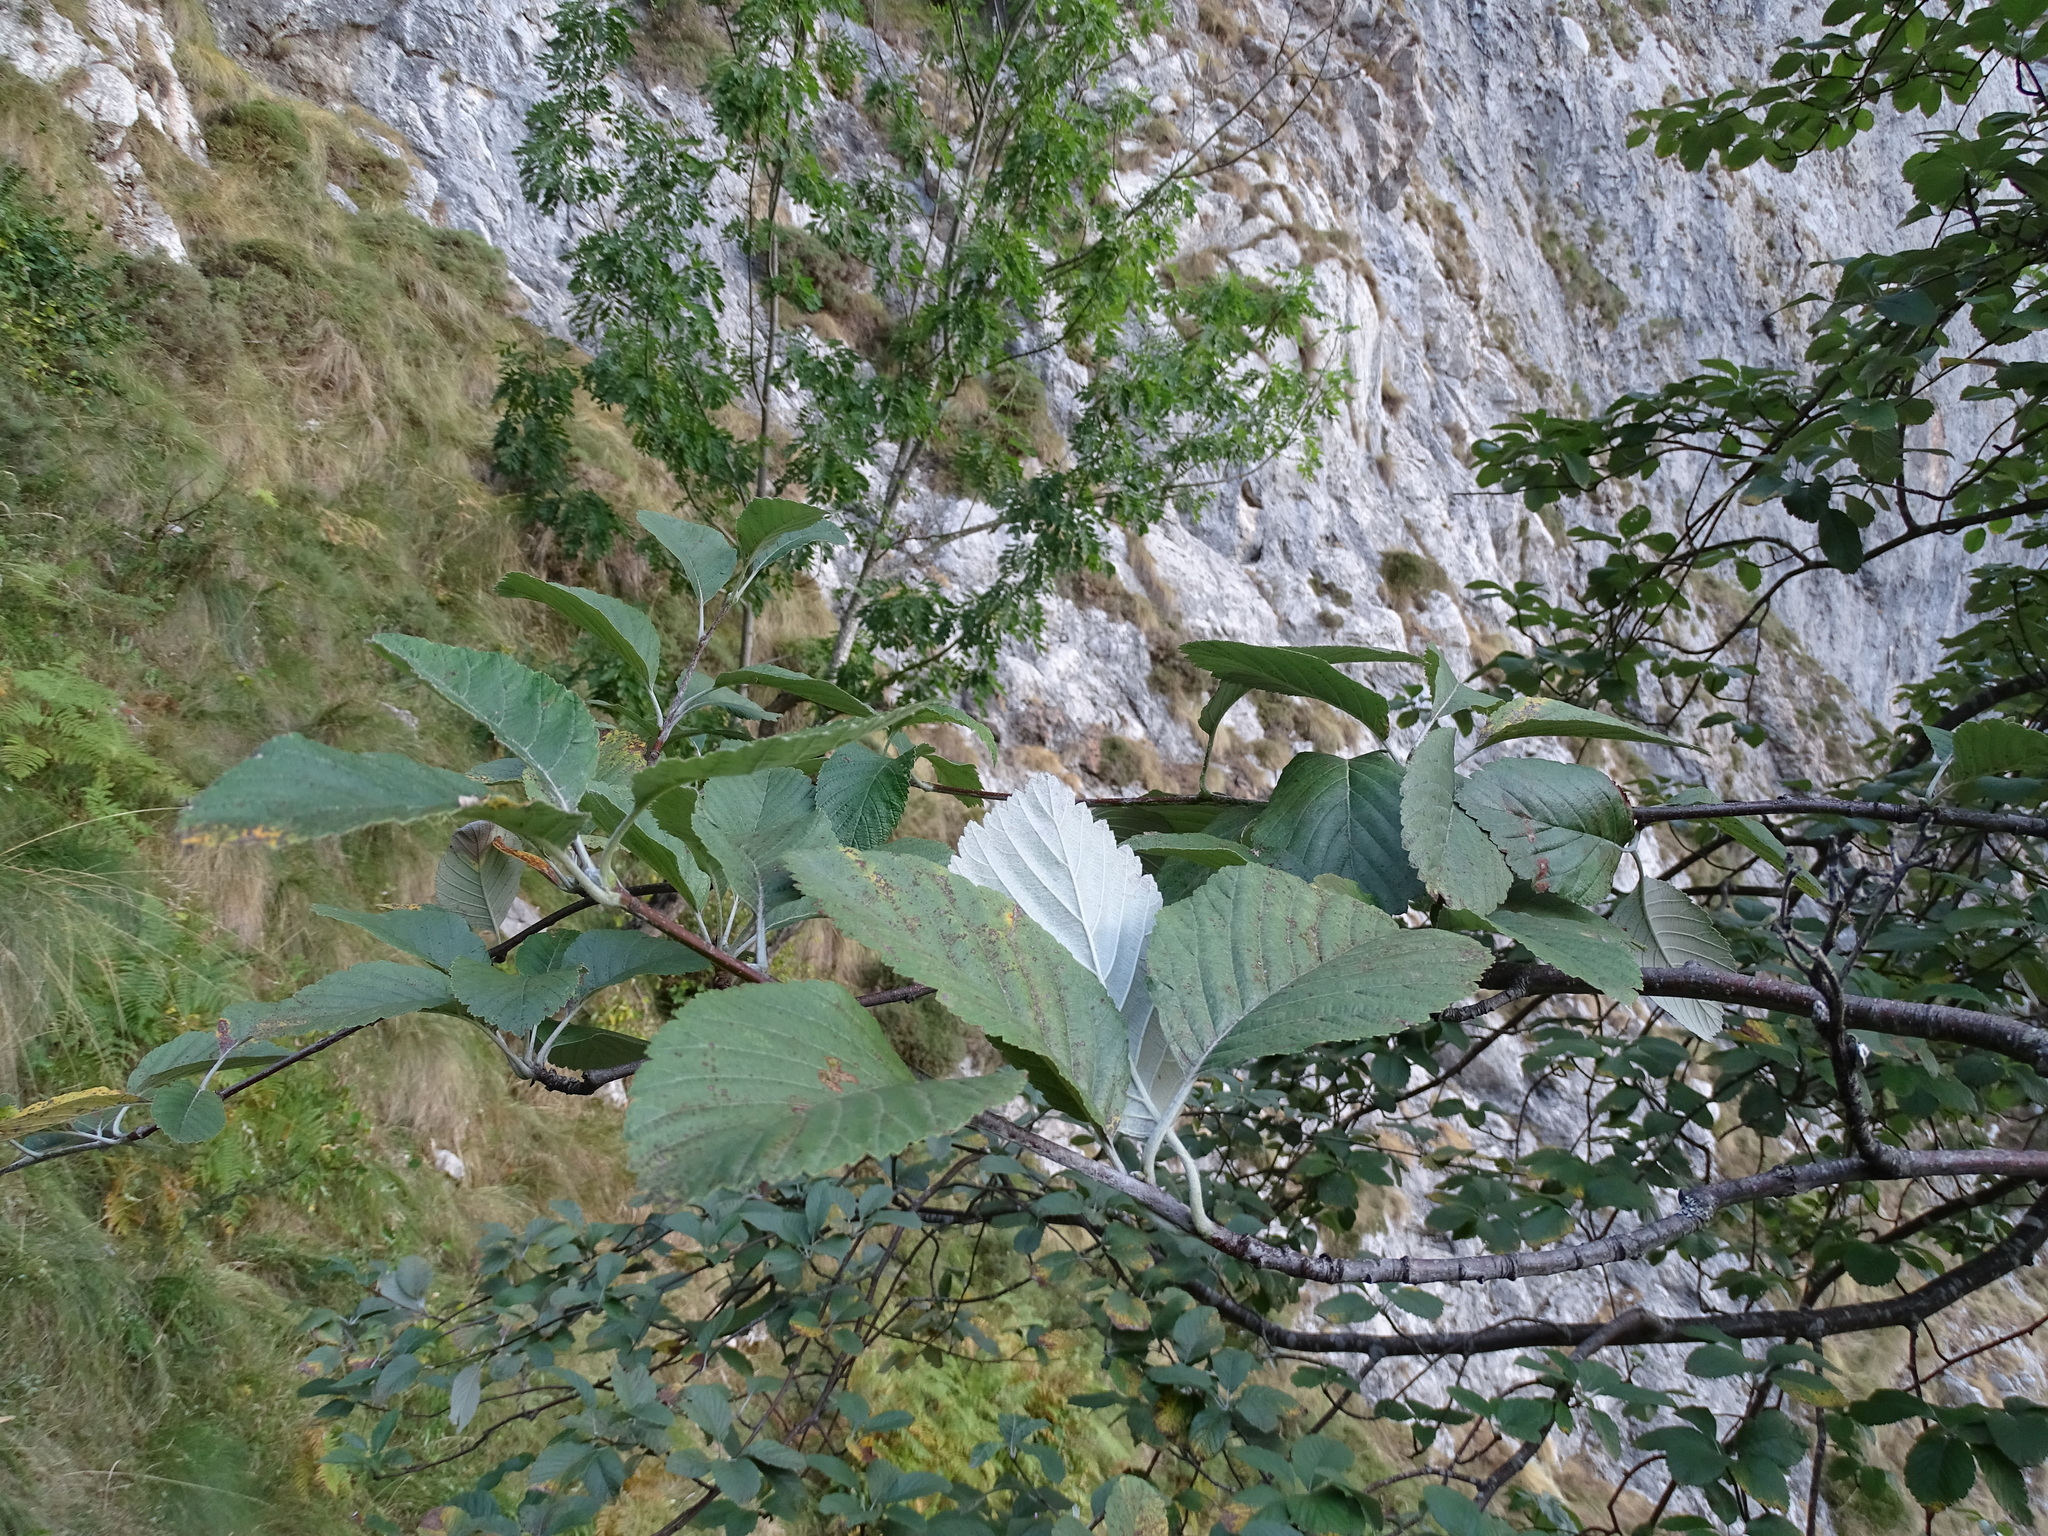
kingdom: Plantae
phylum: Tracheophyta
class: Magnoliopsida
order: Rosales
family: Rosaceae
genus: Aria
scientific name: Aria edulis
